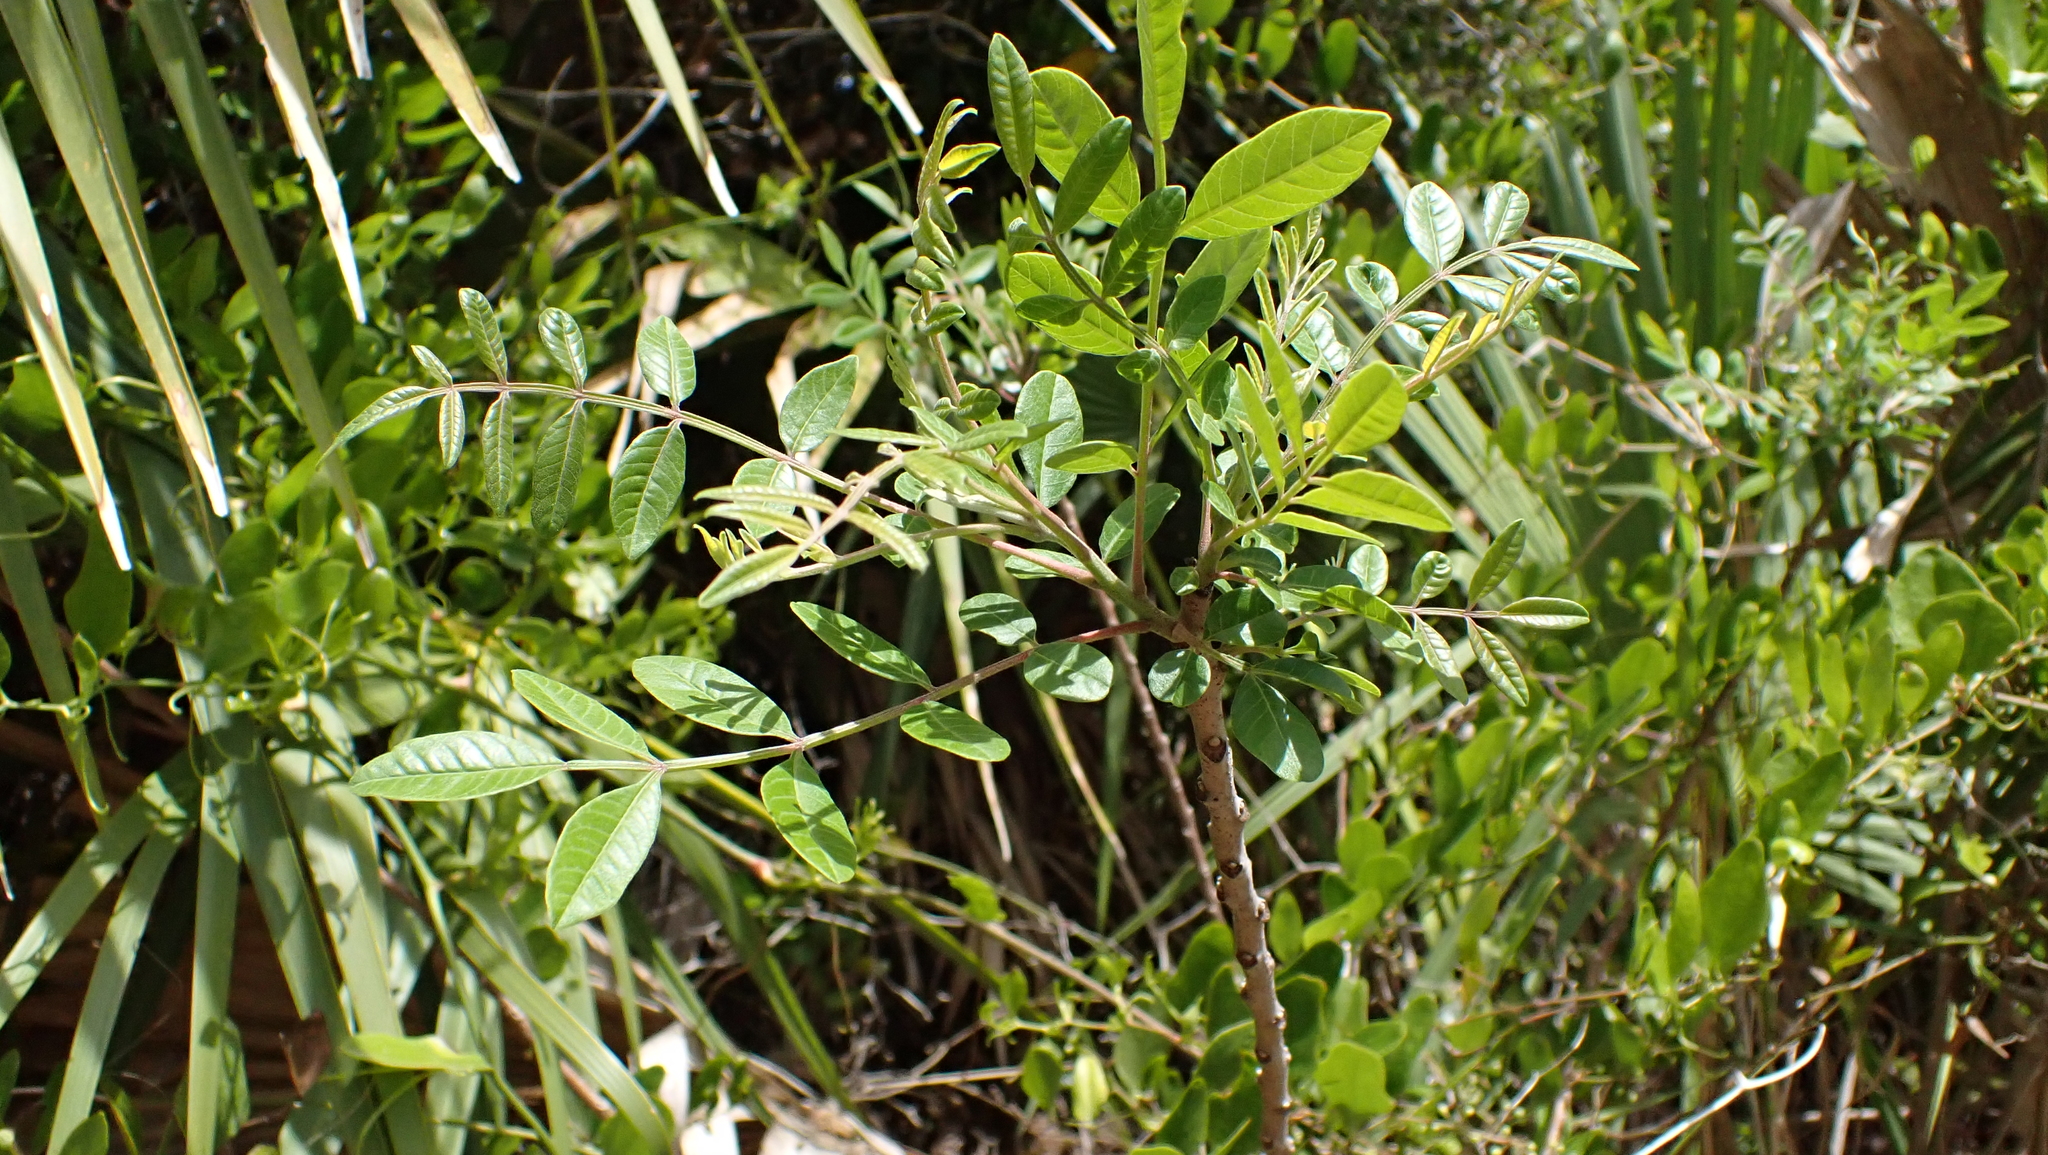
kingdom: Plantae
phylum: Tracheophyta
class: Magnoliopsida
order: Sapindales
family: Anacardiaceae
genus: Rhus
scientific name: Rhus copallina
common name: Shining sumac
